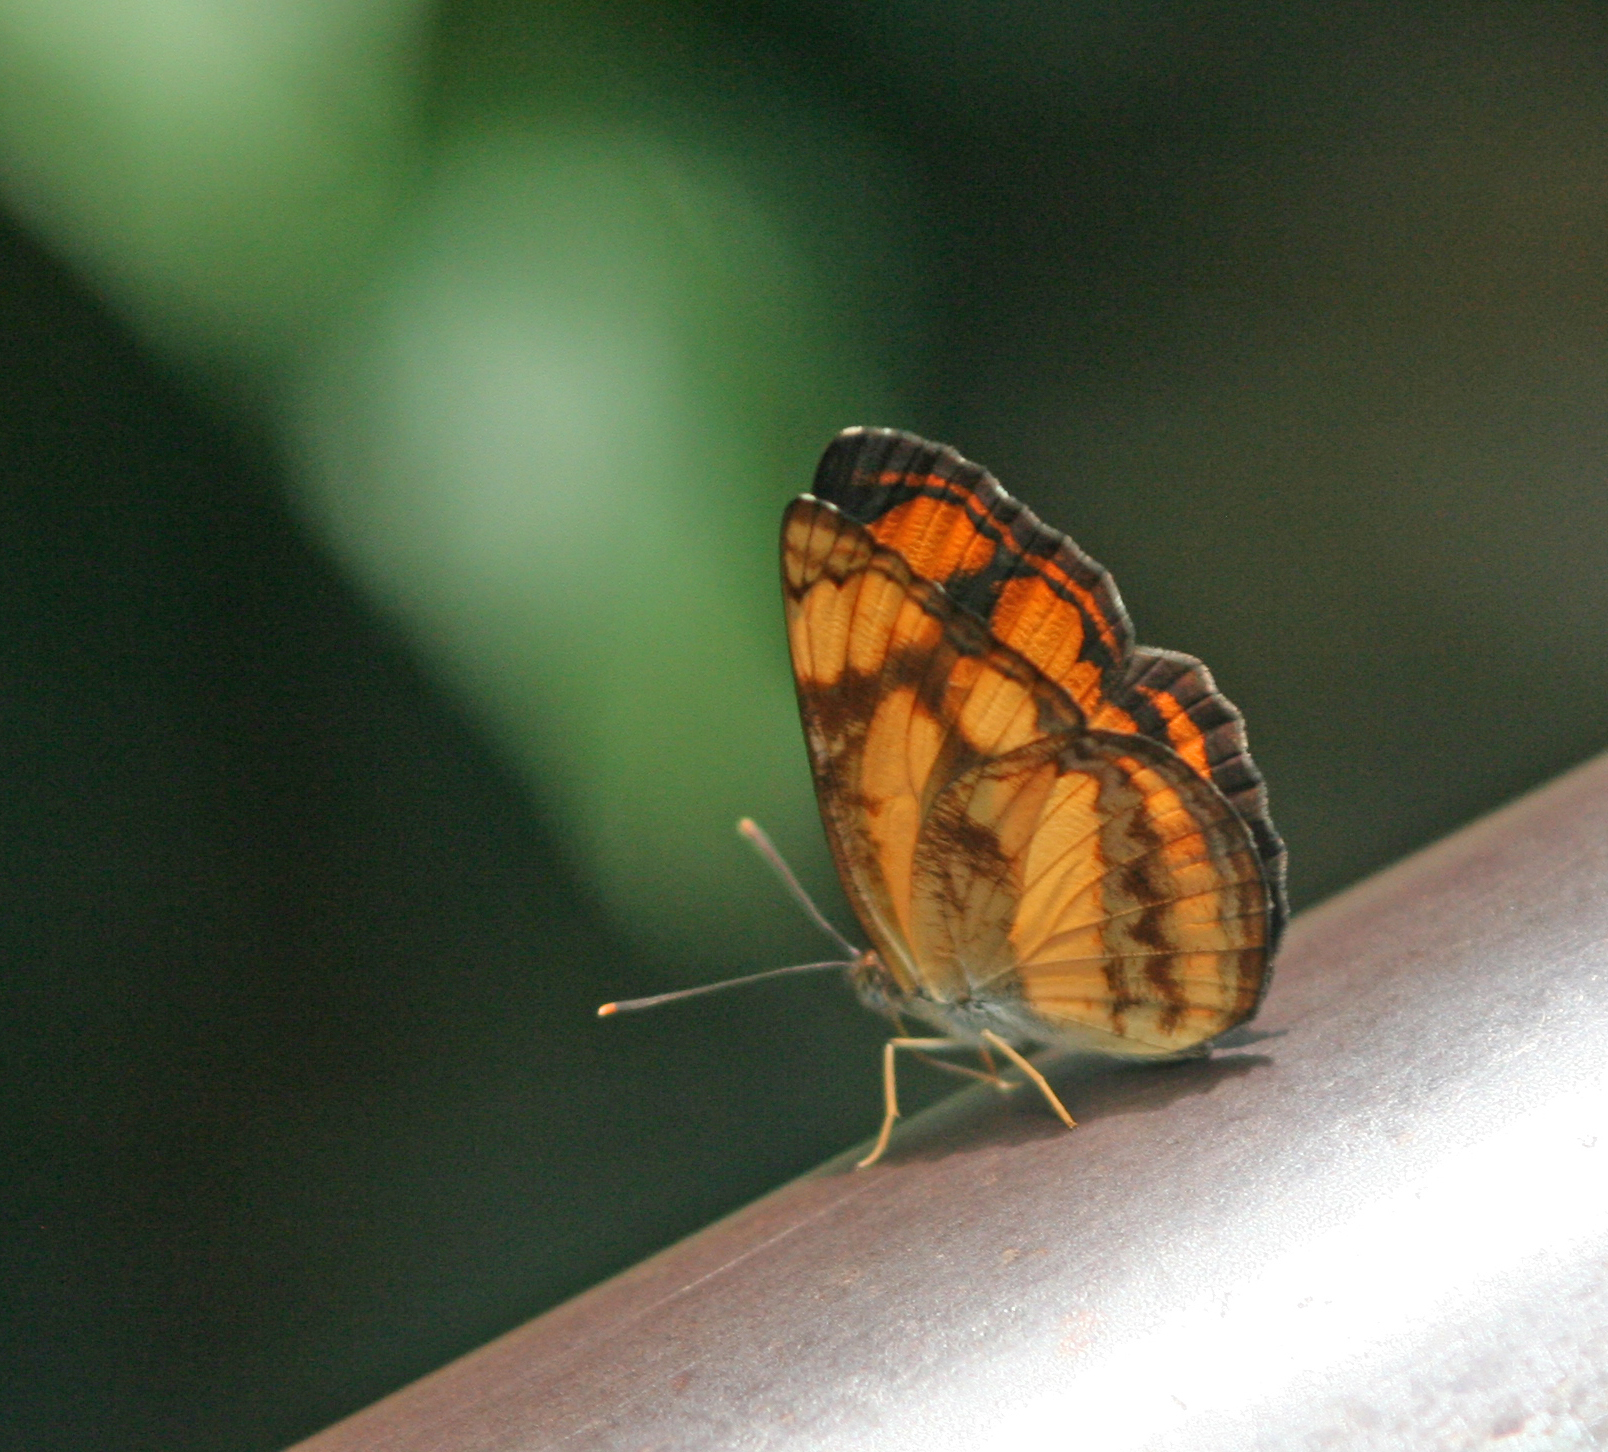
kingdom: Animalia
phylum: Arthropoda
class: Insecta
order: Lepidoptera
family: Nymphalidae
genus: Pantoporia
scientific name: Pantoporia sandaka
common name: Extra lascar
